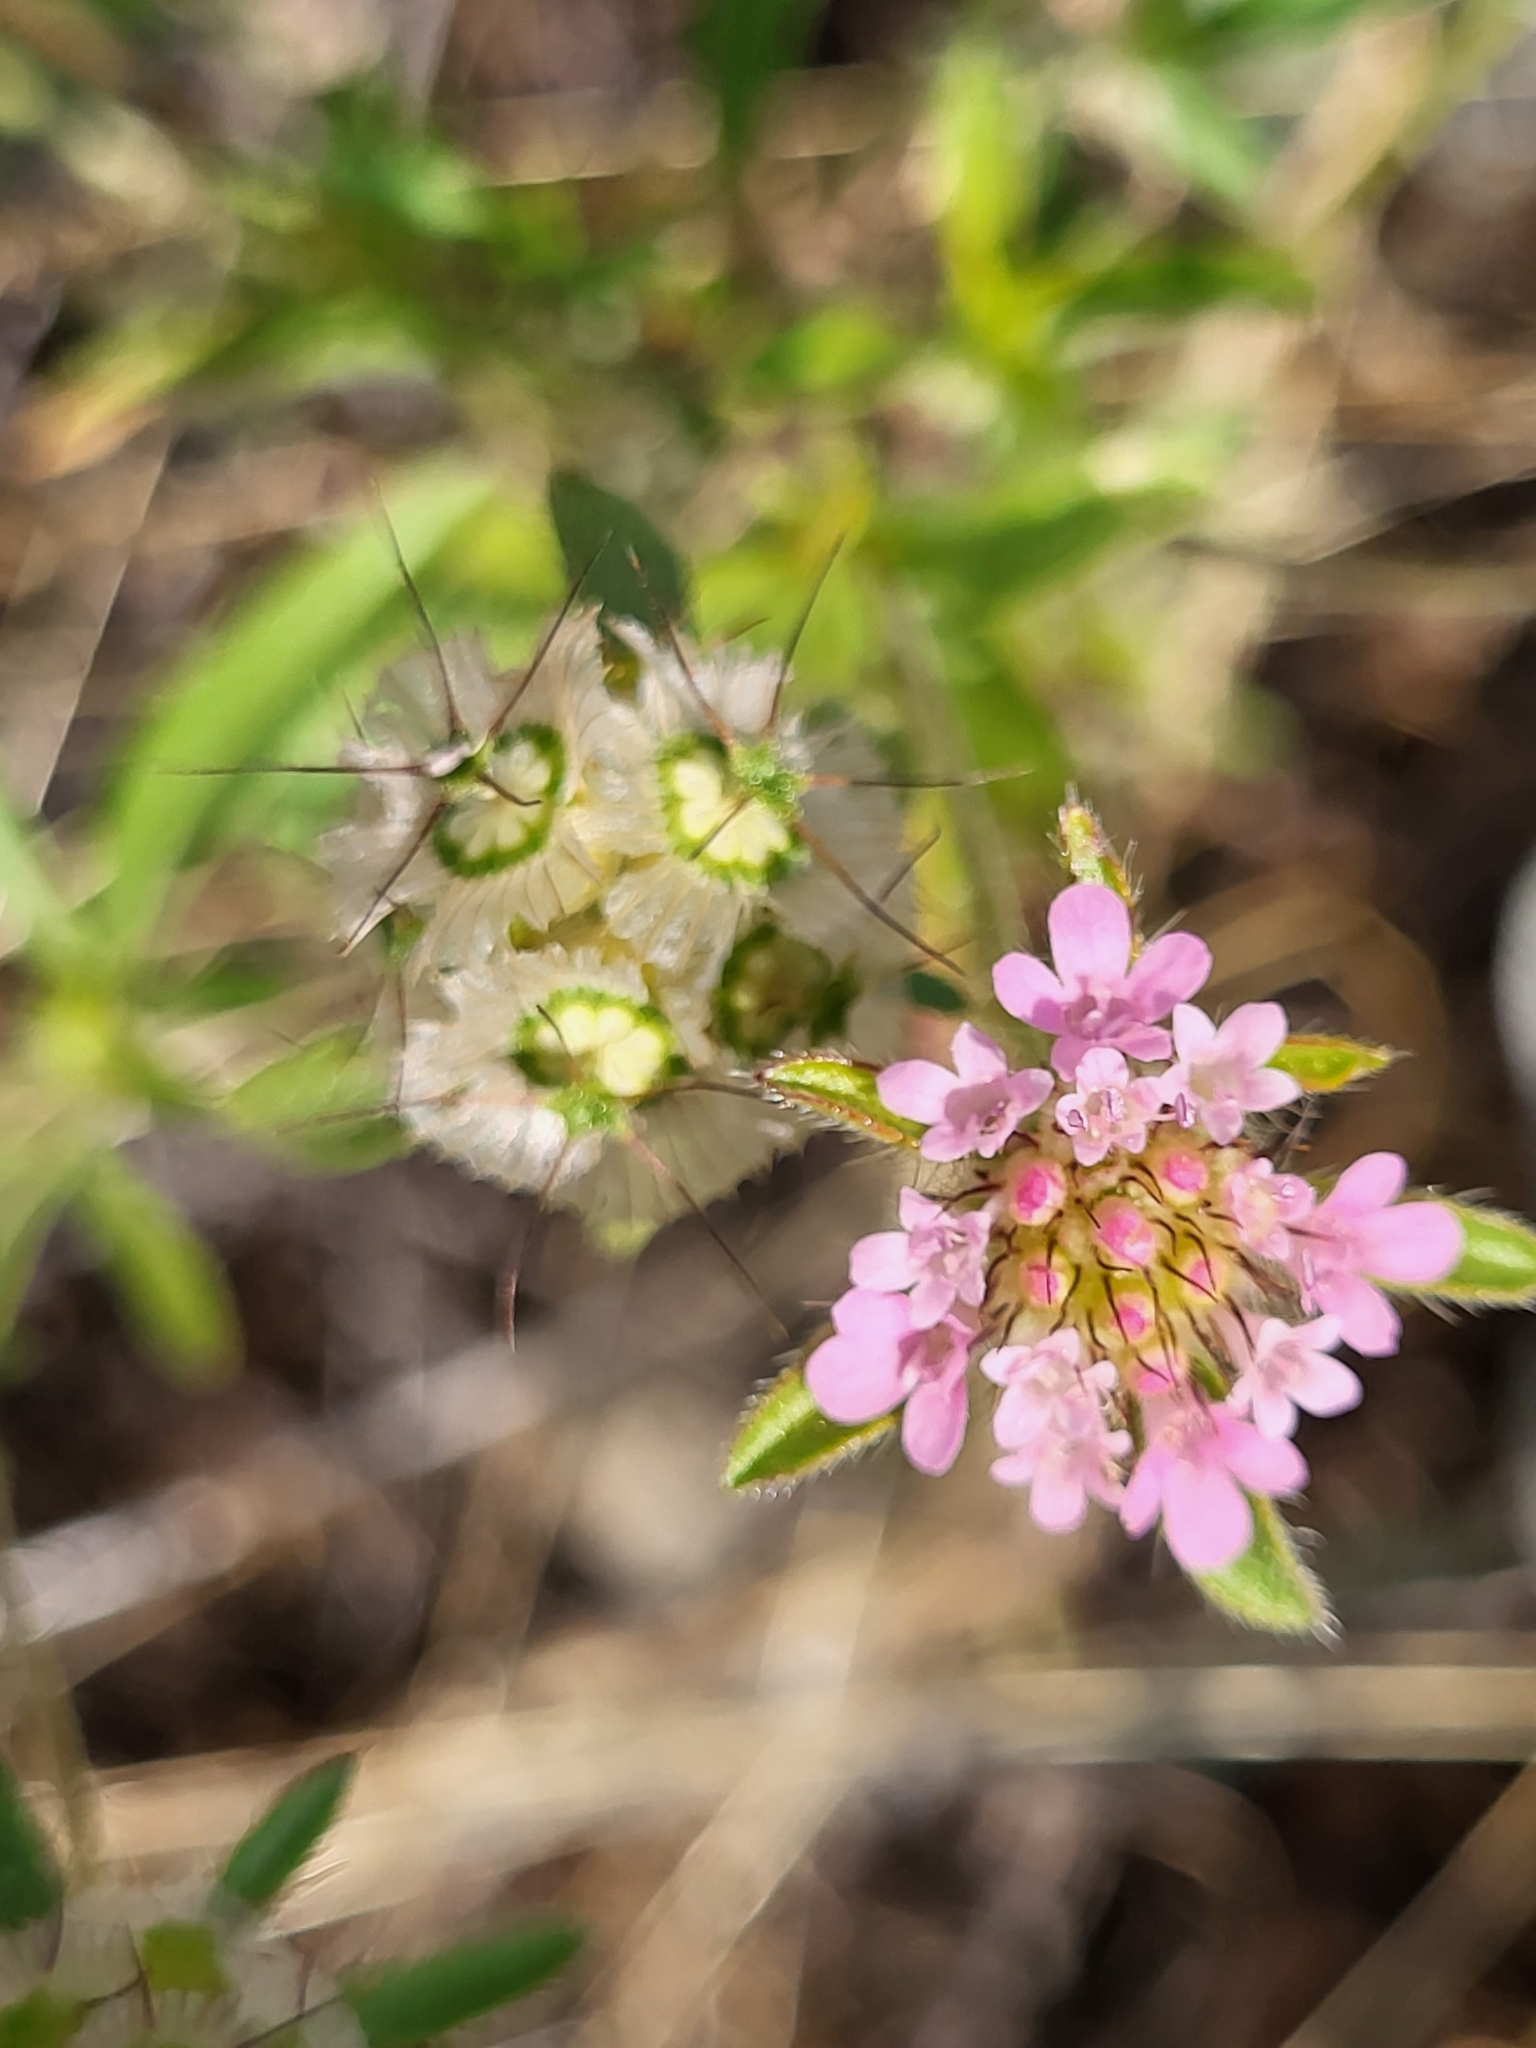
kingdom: Plantae
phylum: Tracheophyta
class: Magnoliopsida
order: Dipsacales
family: Caprifoliaceae
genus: Lomelosia
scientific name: Lomelosia micrantha
